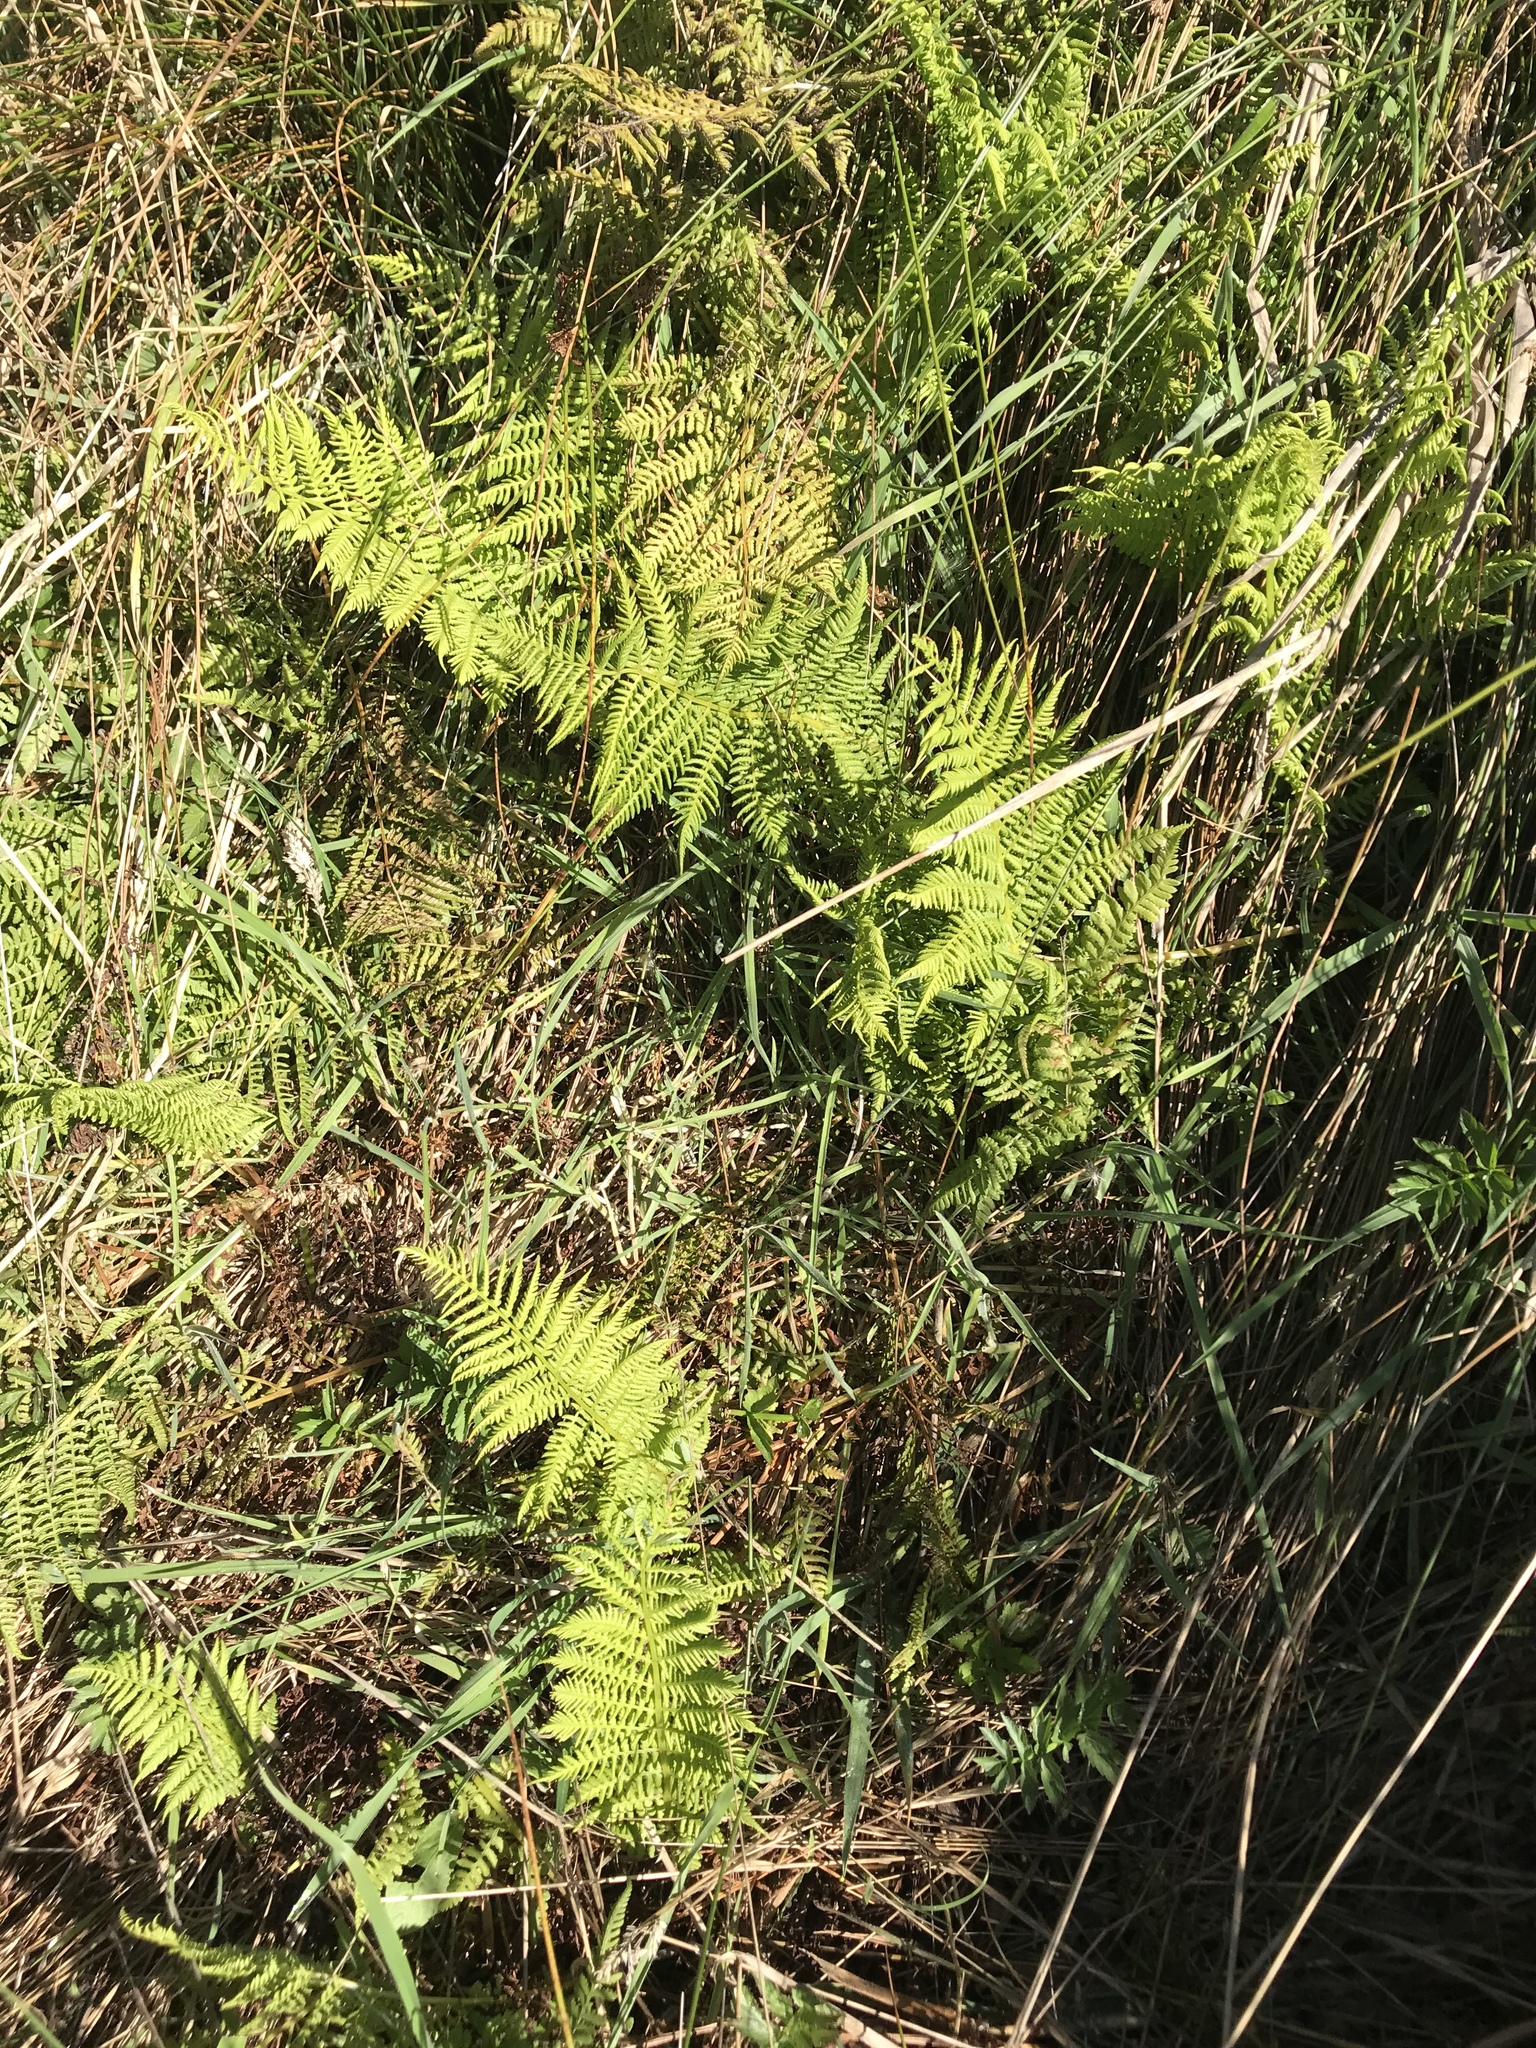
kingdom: Plantae
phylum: Tracheophyta
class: Polypodiopsida
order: Polypodiales
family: Athyriaceae
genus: Athyrium
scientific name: Athyrium filix-femina
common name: Lady fern
